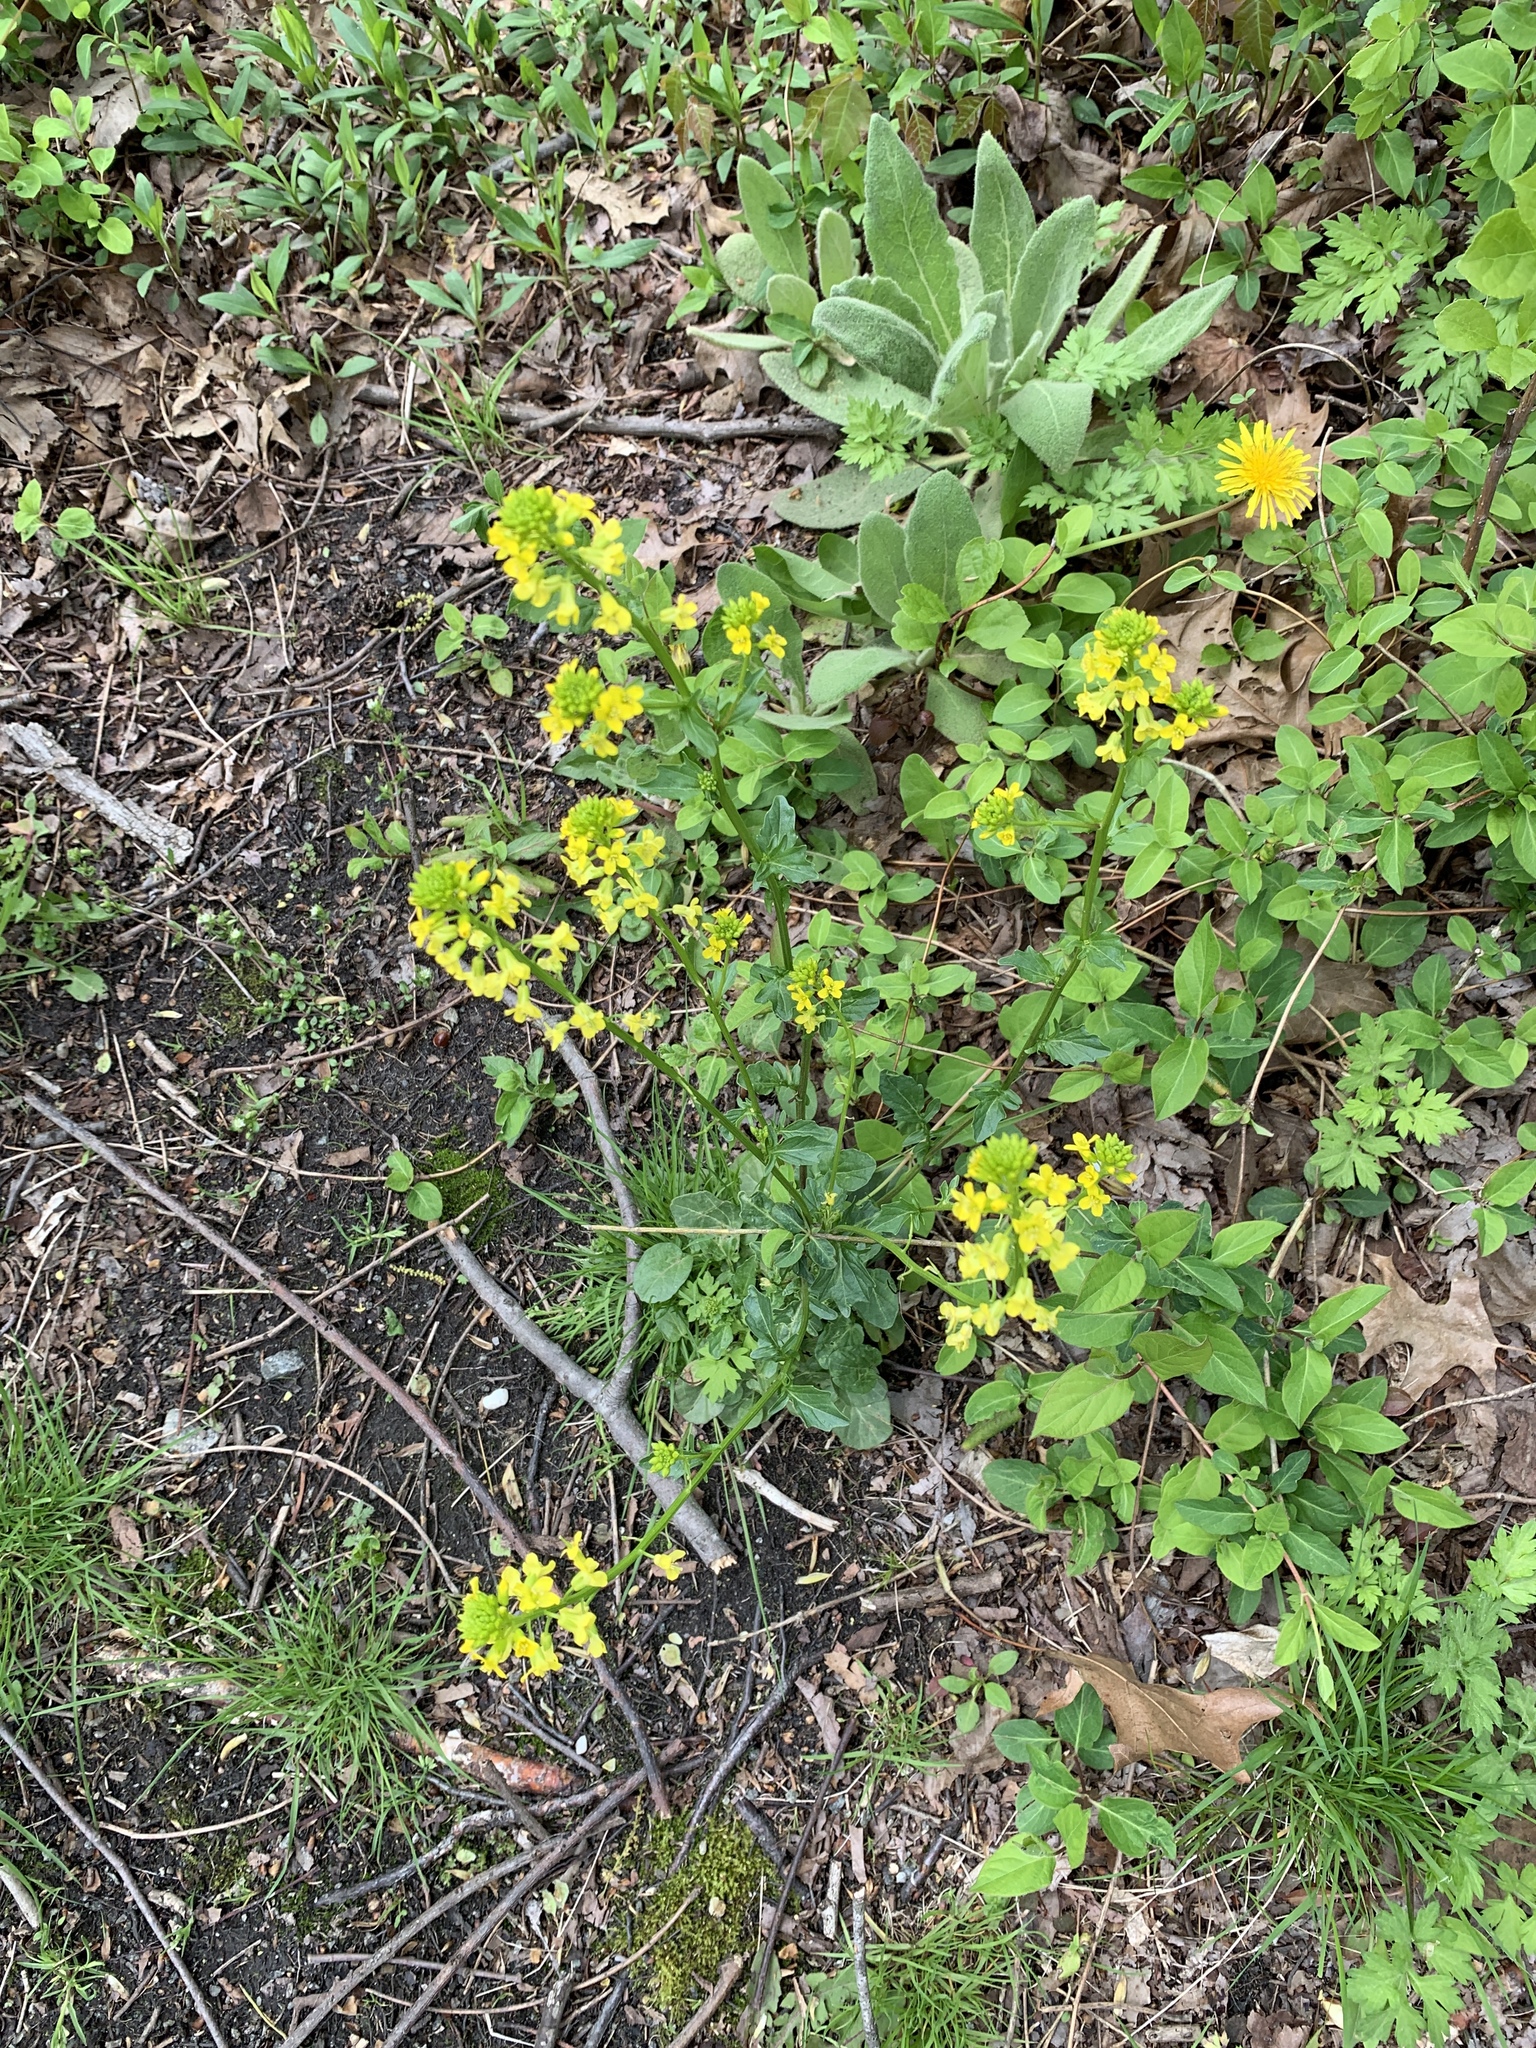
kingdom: Plantae
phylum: Tracheophyta
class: Magnoliopsida
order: Brassicales
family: Brassicaceae
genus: Barbarea
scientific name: Barbarea vulgaris
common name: Cressy-greens
